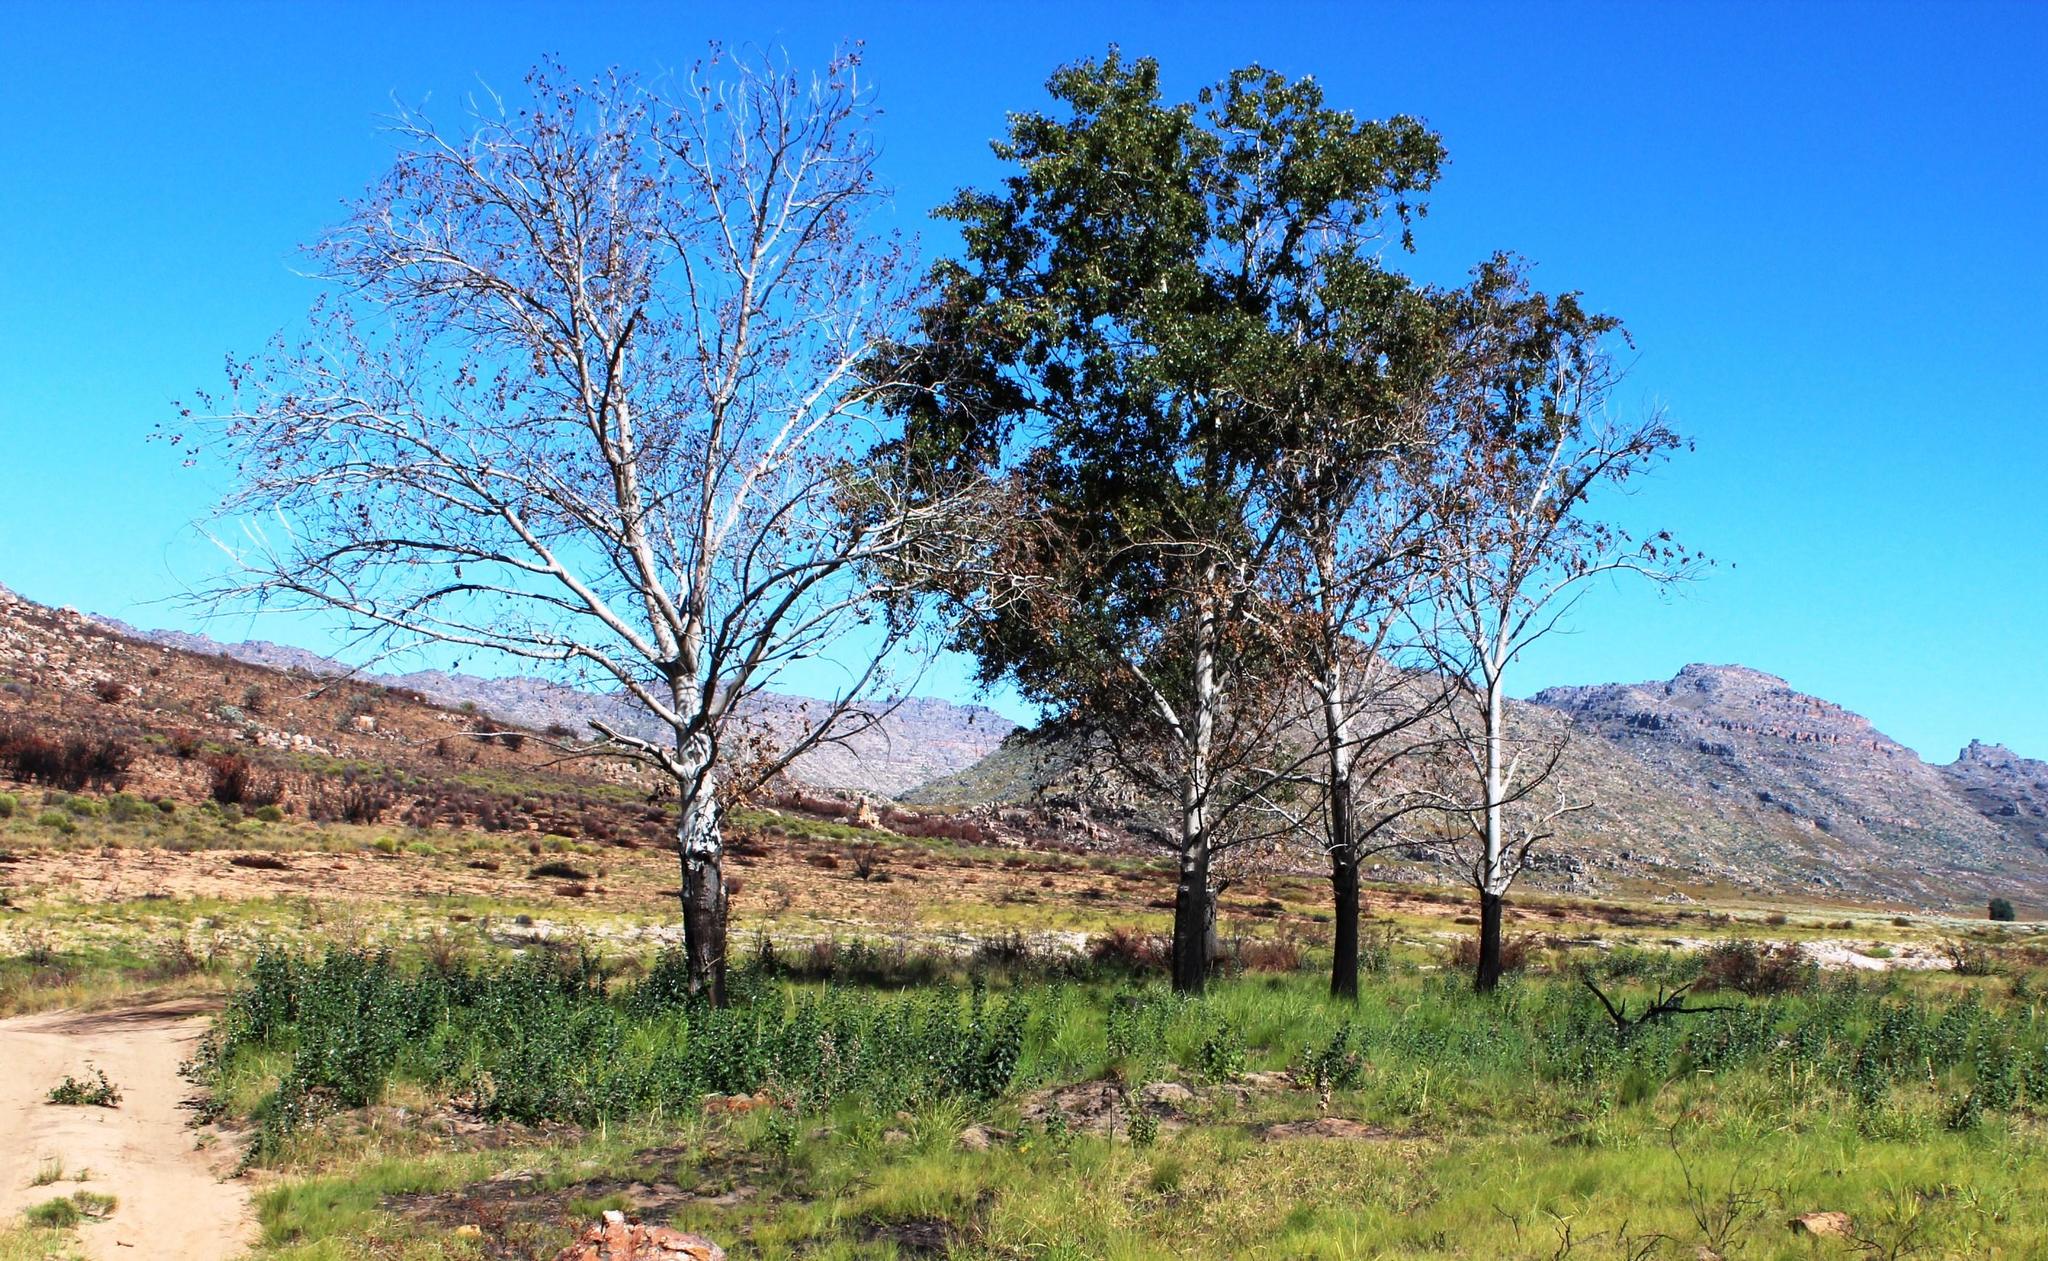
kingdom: Plantae
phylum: Tracheophyta
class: Magnoliopsida
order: Malpighiales
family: Salicaceae
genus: Populus
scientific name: Populus canescens
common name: Gray poplar
